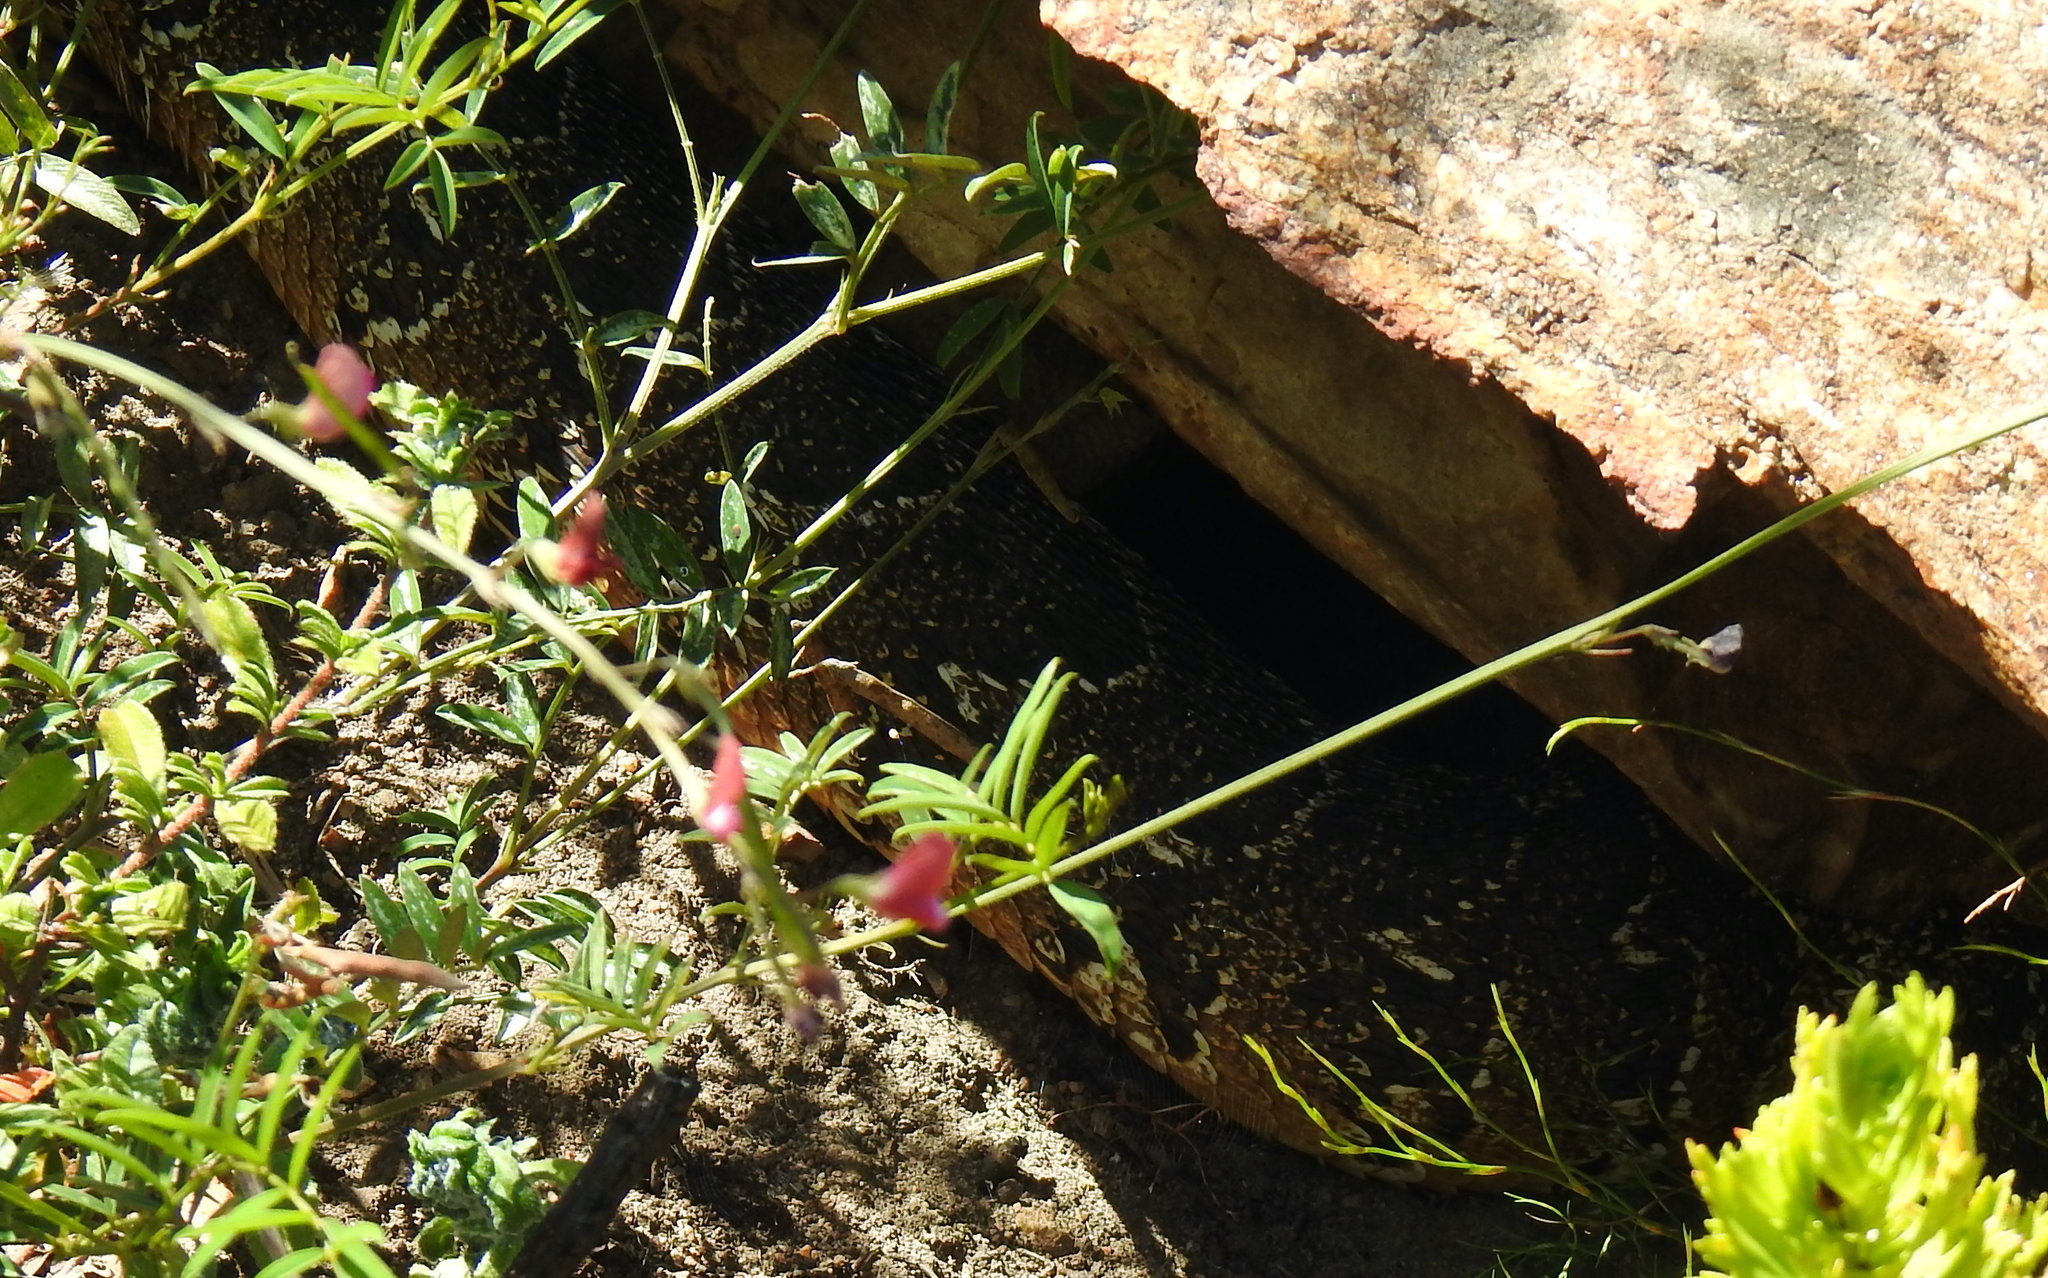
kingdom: Animalia
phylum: Chordata
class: Squamata
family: Viperidae
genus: Bitis
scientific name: Bitis arietans
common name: Puff adder
